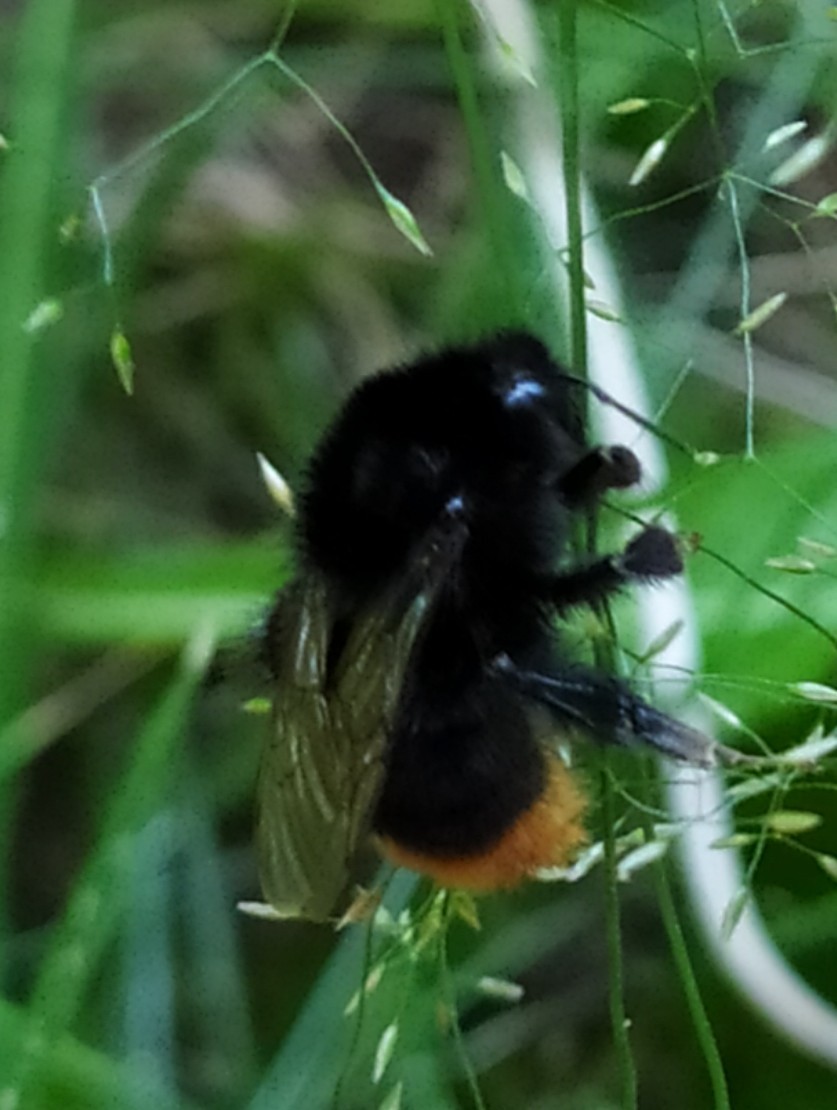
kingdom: Animalia
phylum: Arthropoda
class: Insecta
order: Hymenoptera
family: Apidae
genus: Bombus
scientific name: Bombus lapidarius
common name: Large red-tailed humble-bee
